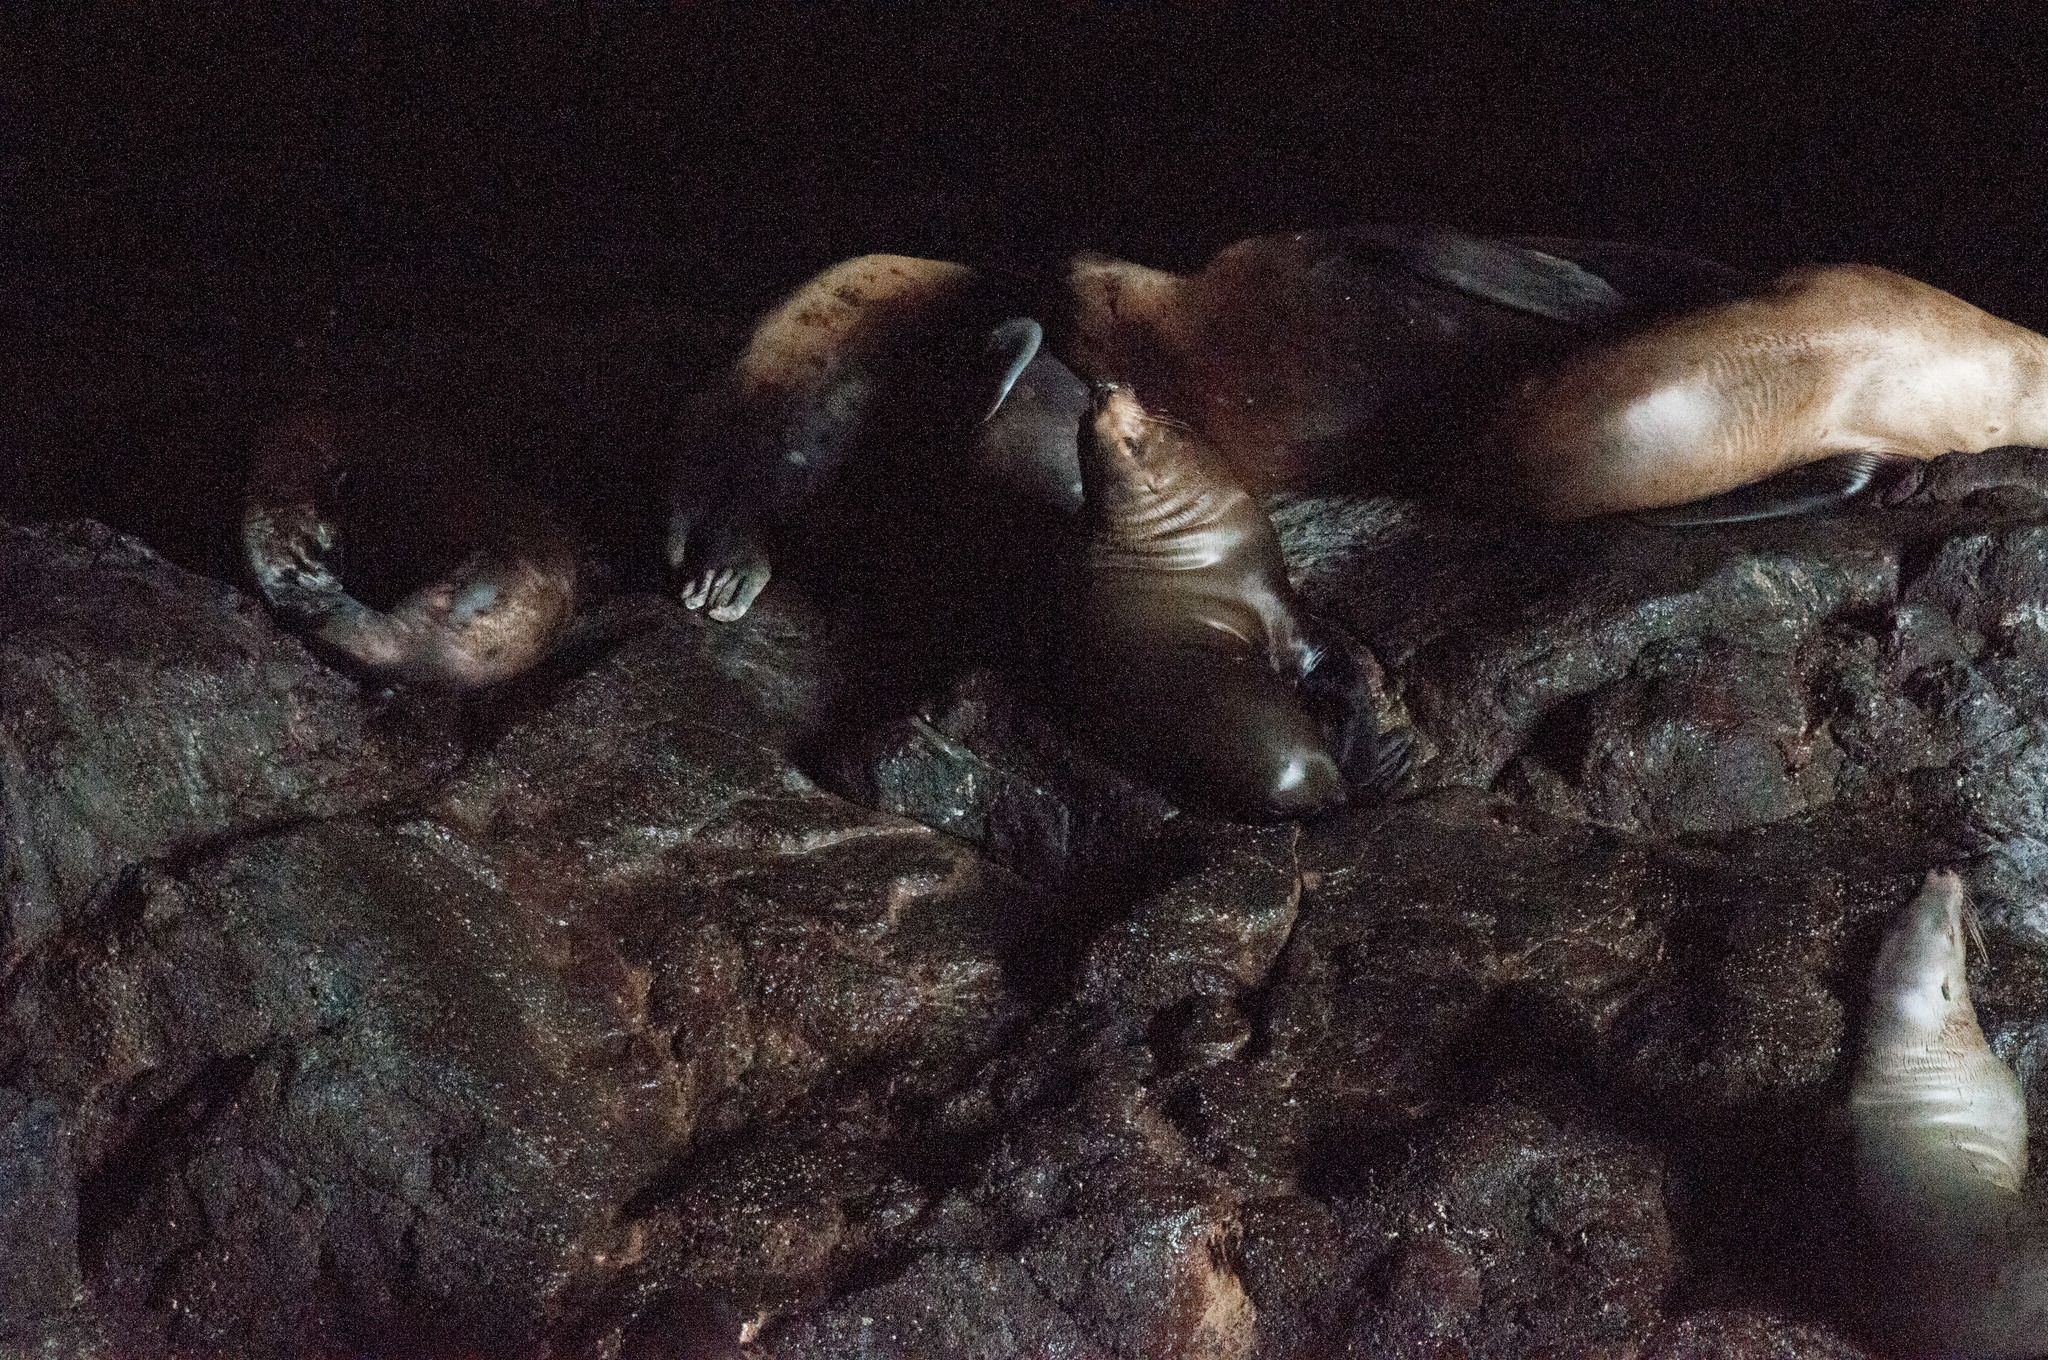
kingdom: Animalia
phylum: Chordata
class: Mammalia
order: Carnivora
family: Otariidae
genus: Eumetopias
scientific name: Eumetopias jubatus
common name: Steller sea lion
